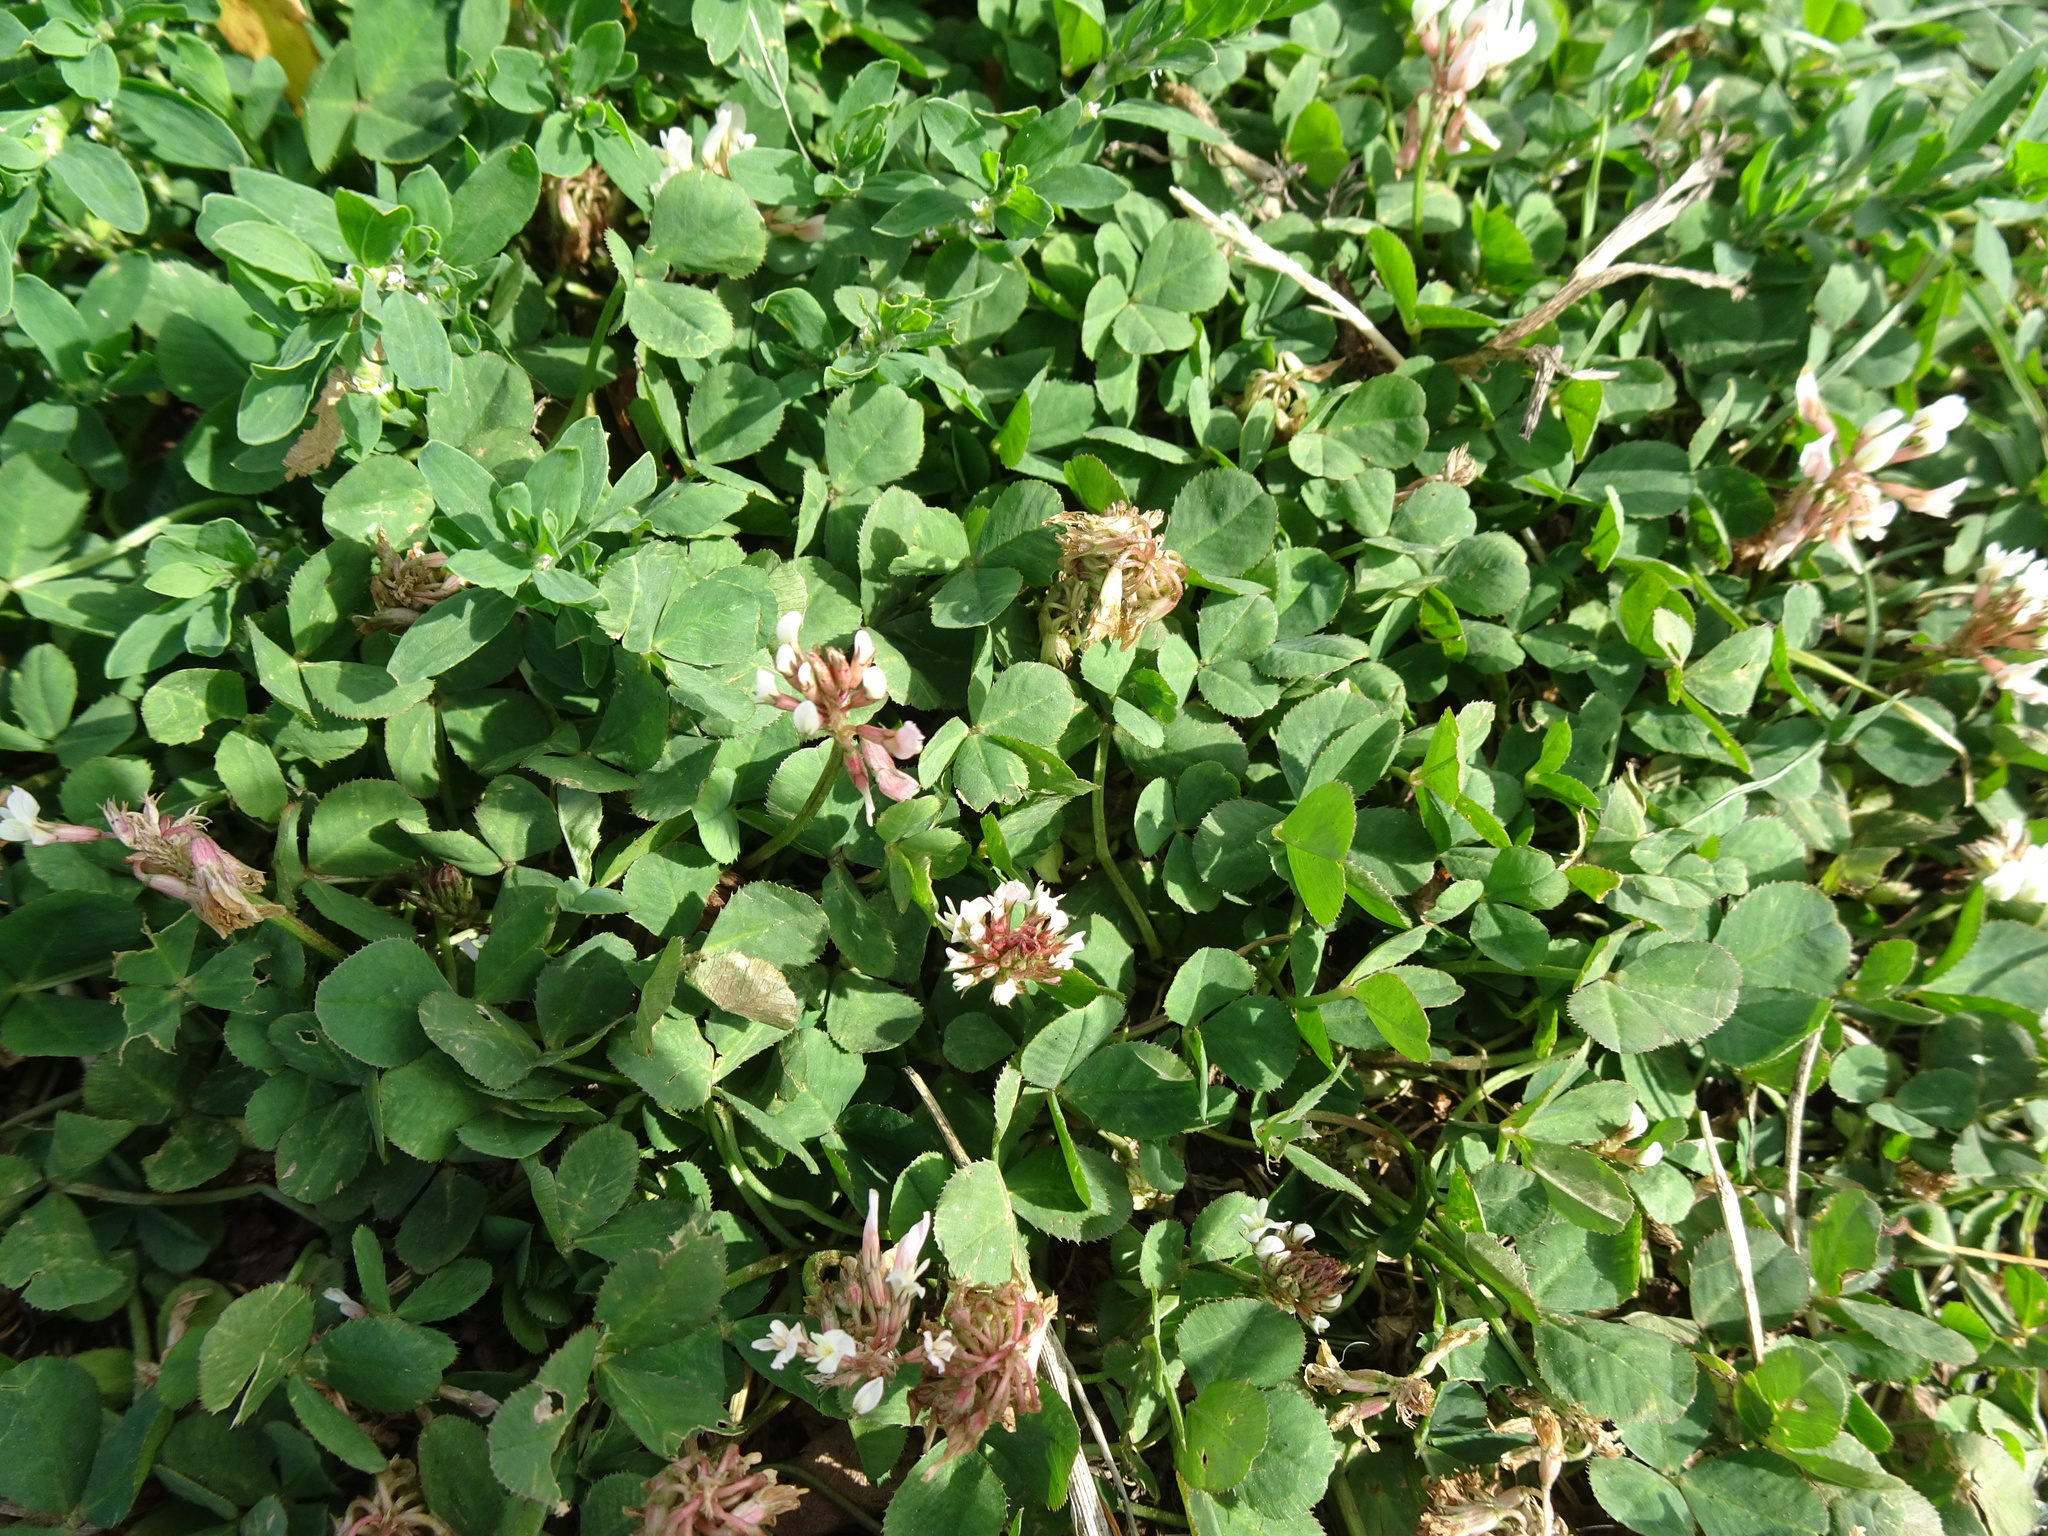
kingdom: Plantae
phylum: Tracheophyta
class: Magnoliopsida
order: Fabales
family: Fabaceae
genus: Trifolium
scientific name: Trifolium repens
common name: White clover
